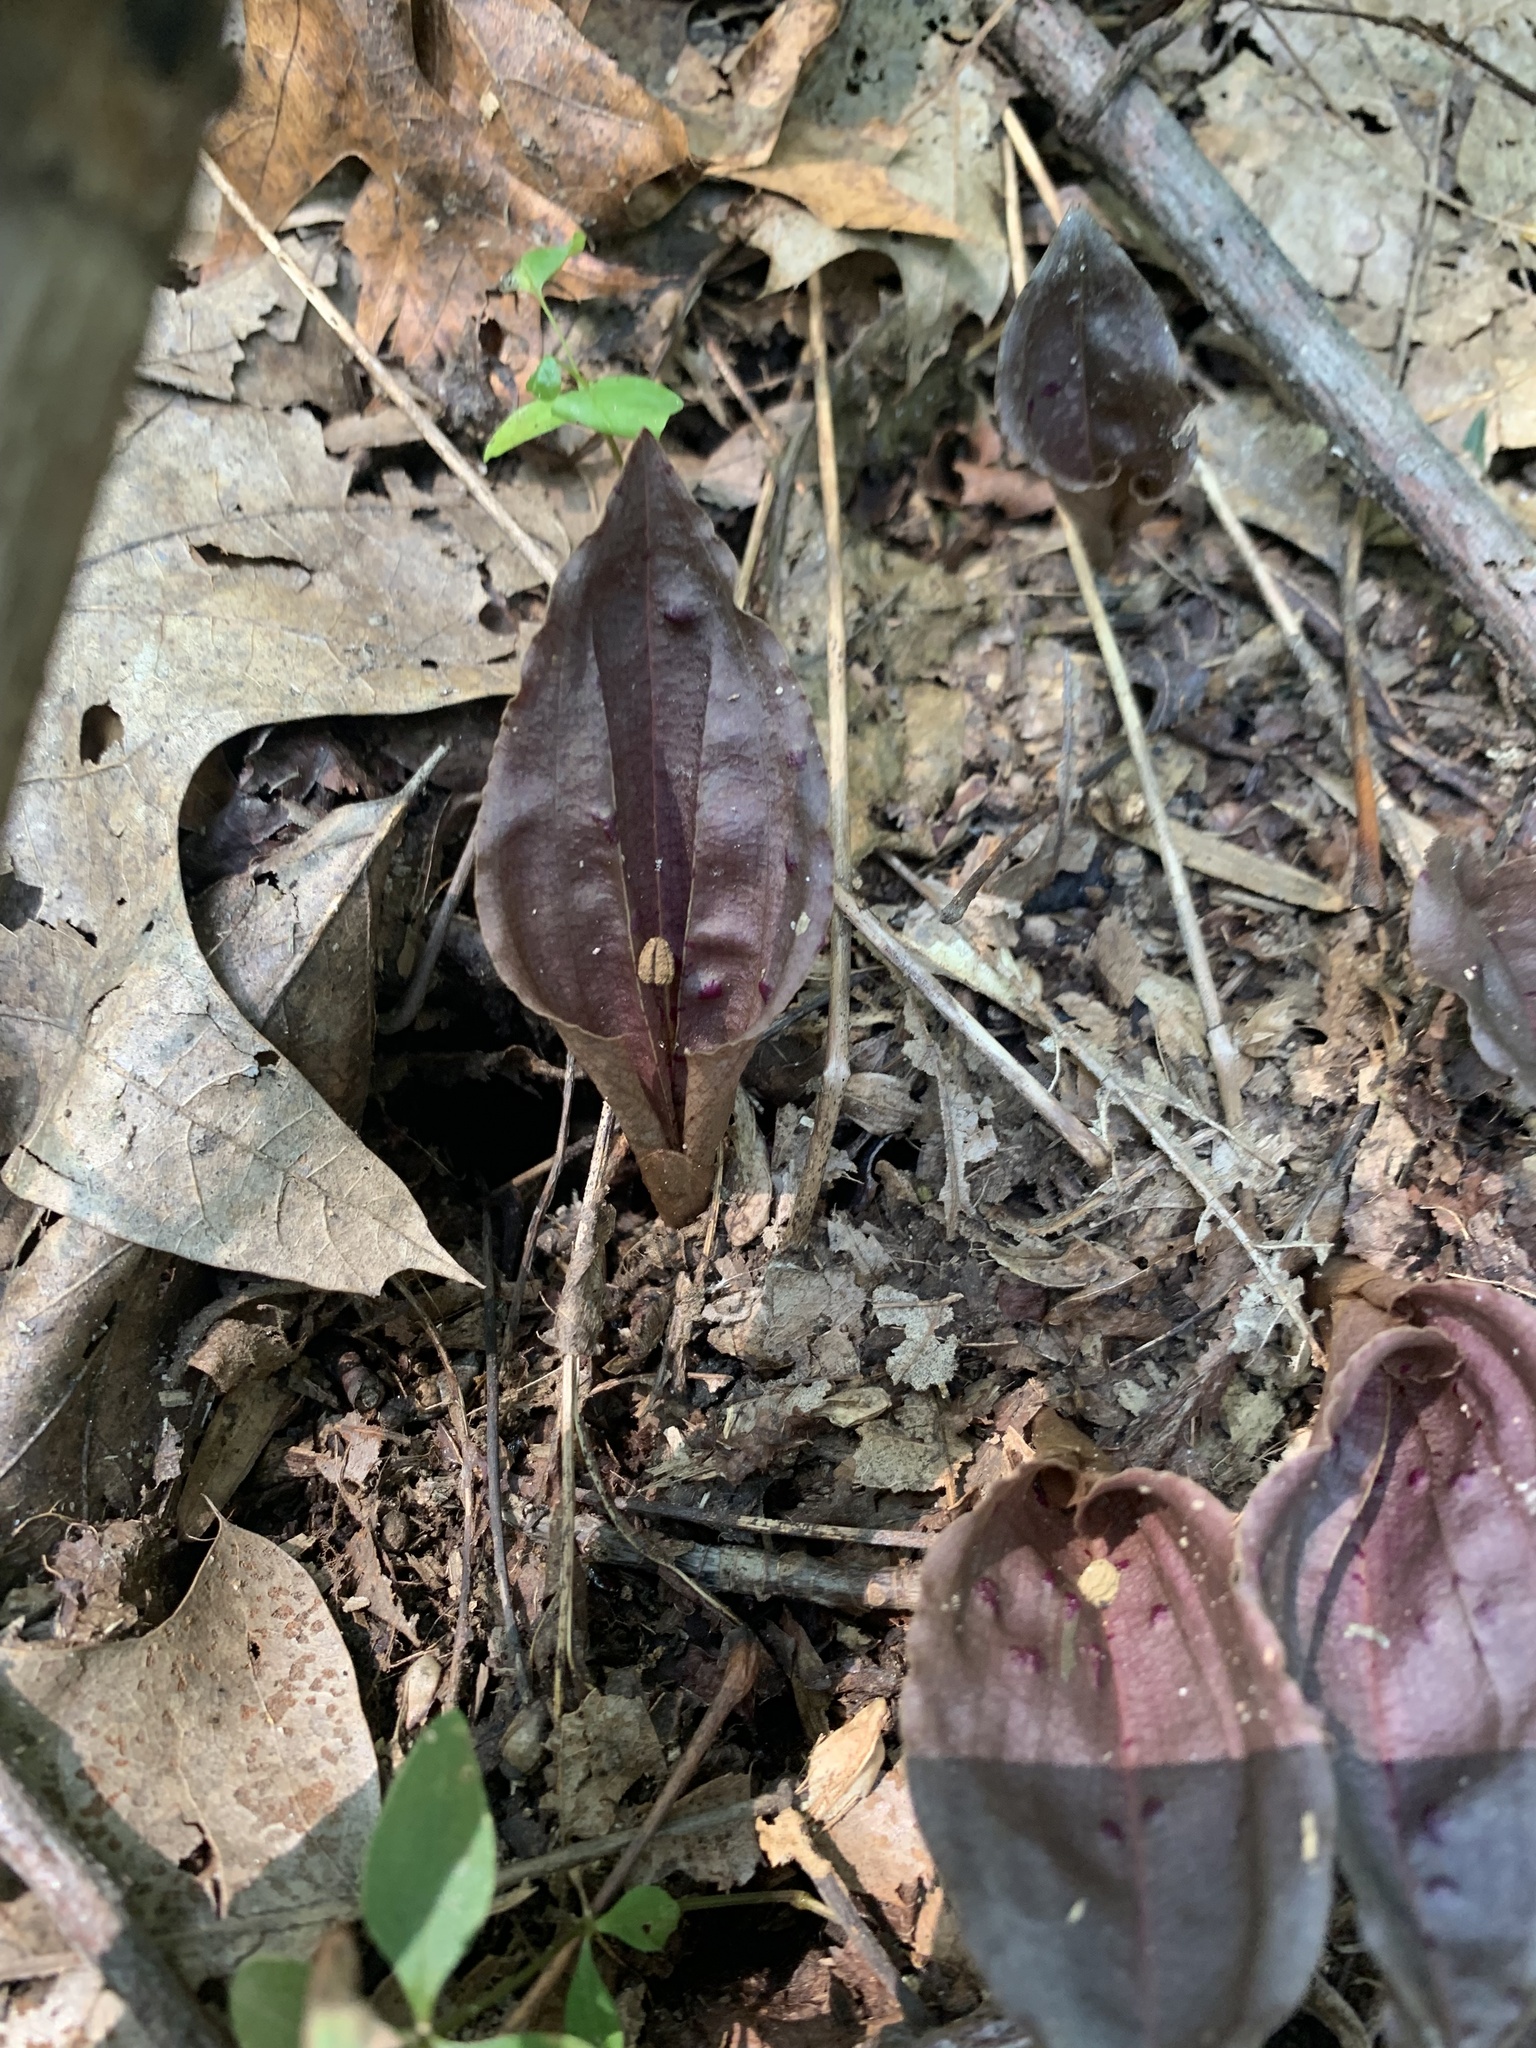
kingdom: Plantae
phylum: Tracheophyta
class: Liliopsida
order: Asparagales
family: Orchidaceae
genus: Tipularia
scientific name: Tipularia discolor
